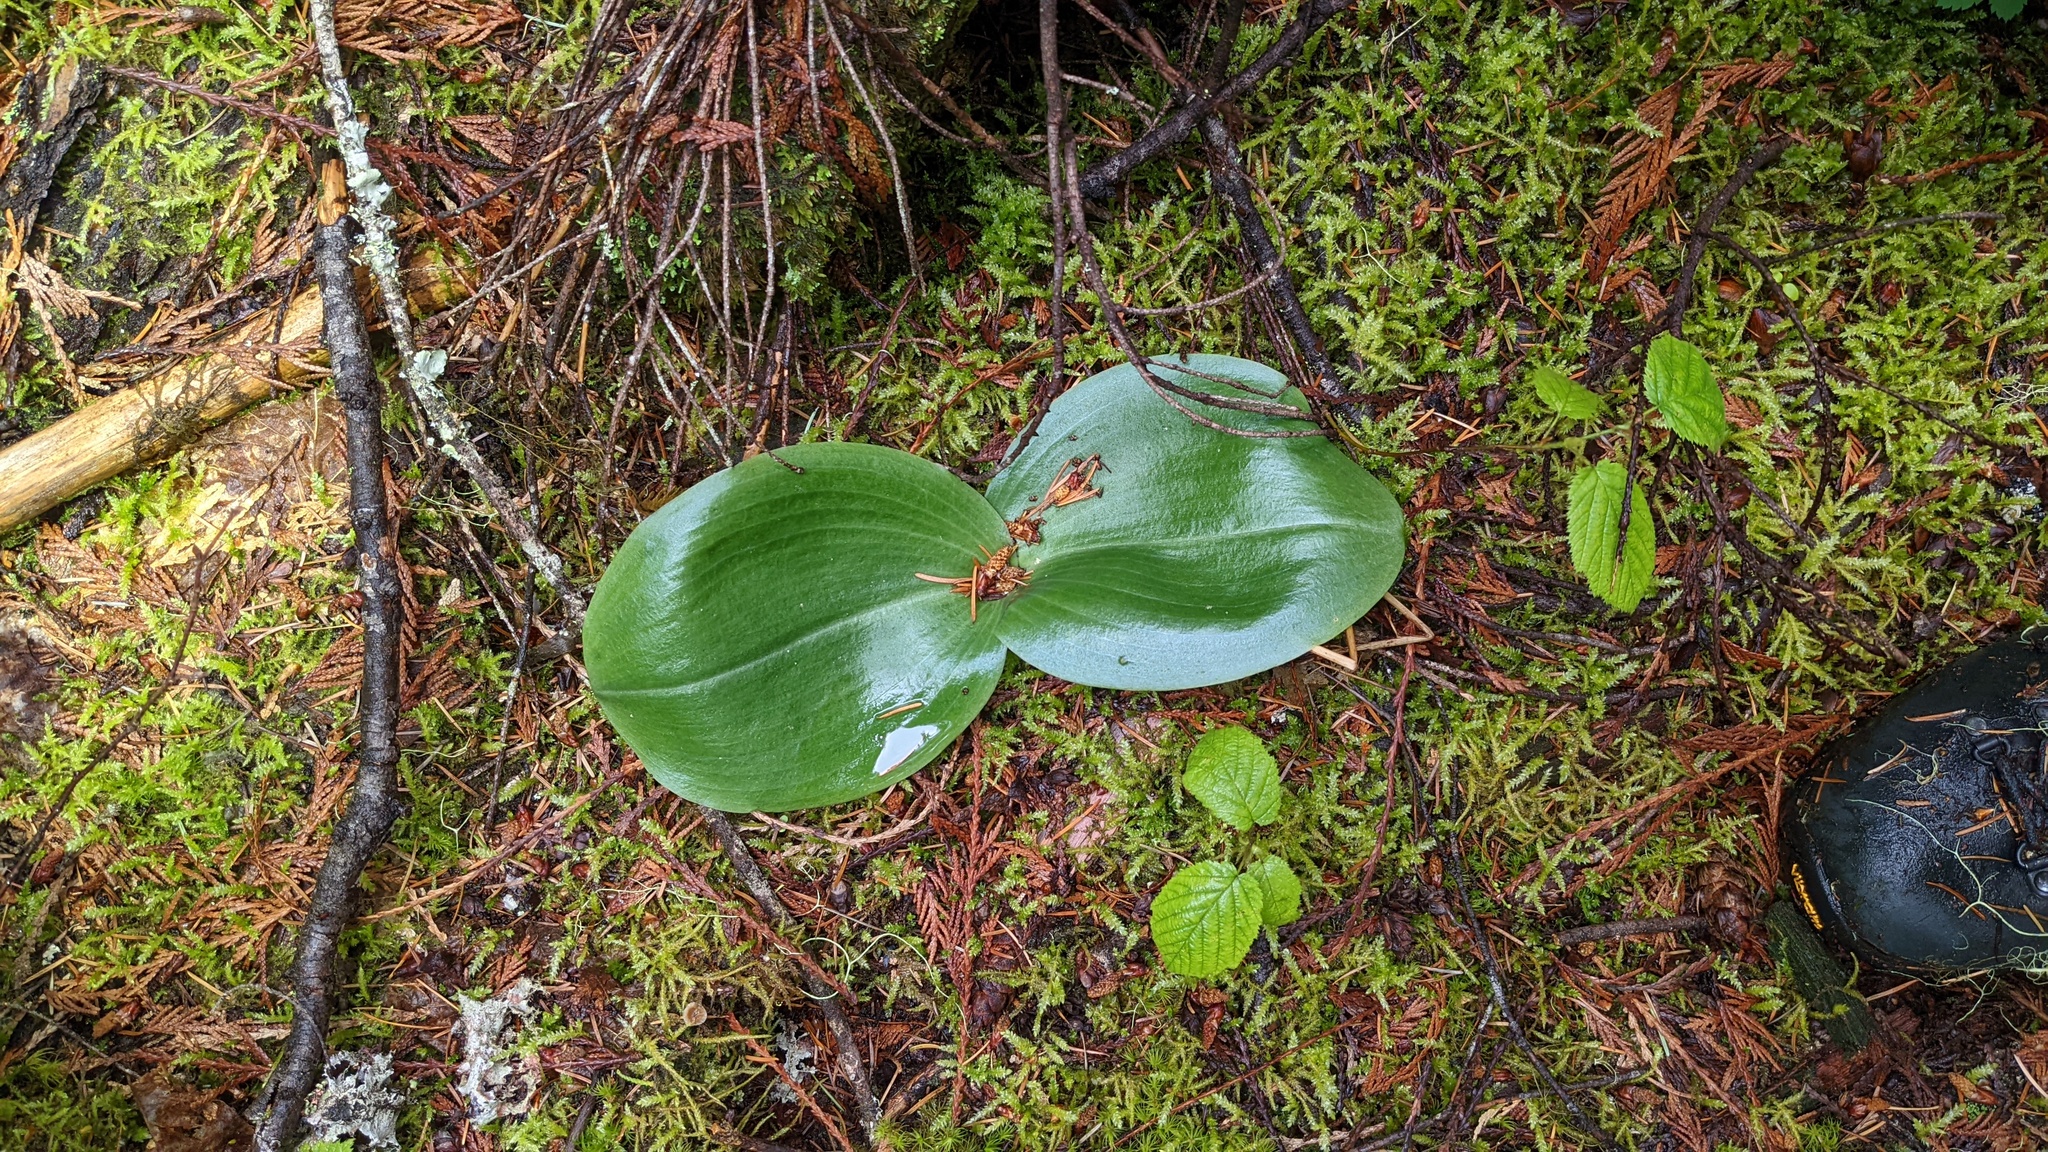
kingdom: Plantae
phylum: Tracheophyta
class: Liliopsida
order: Asparagales
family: Orchidaceae
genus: Platanthera
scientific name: Platanthera orbiculata
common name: Large round-leaved orchid
